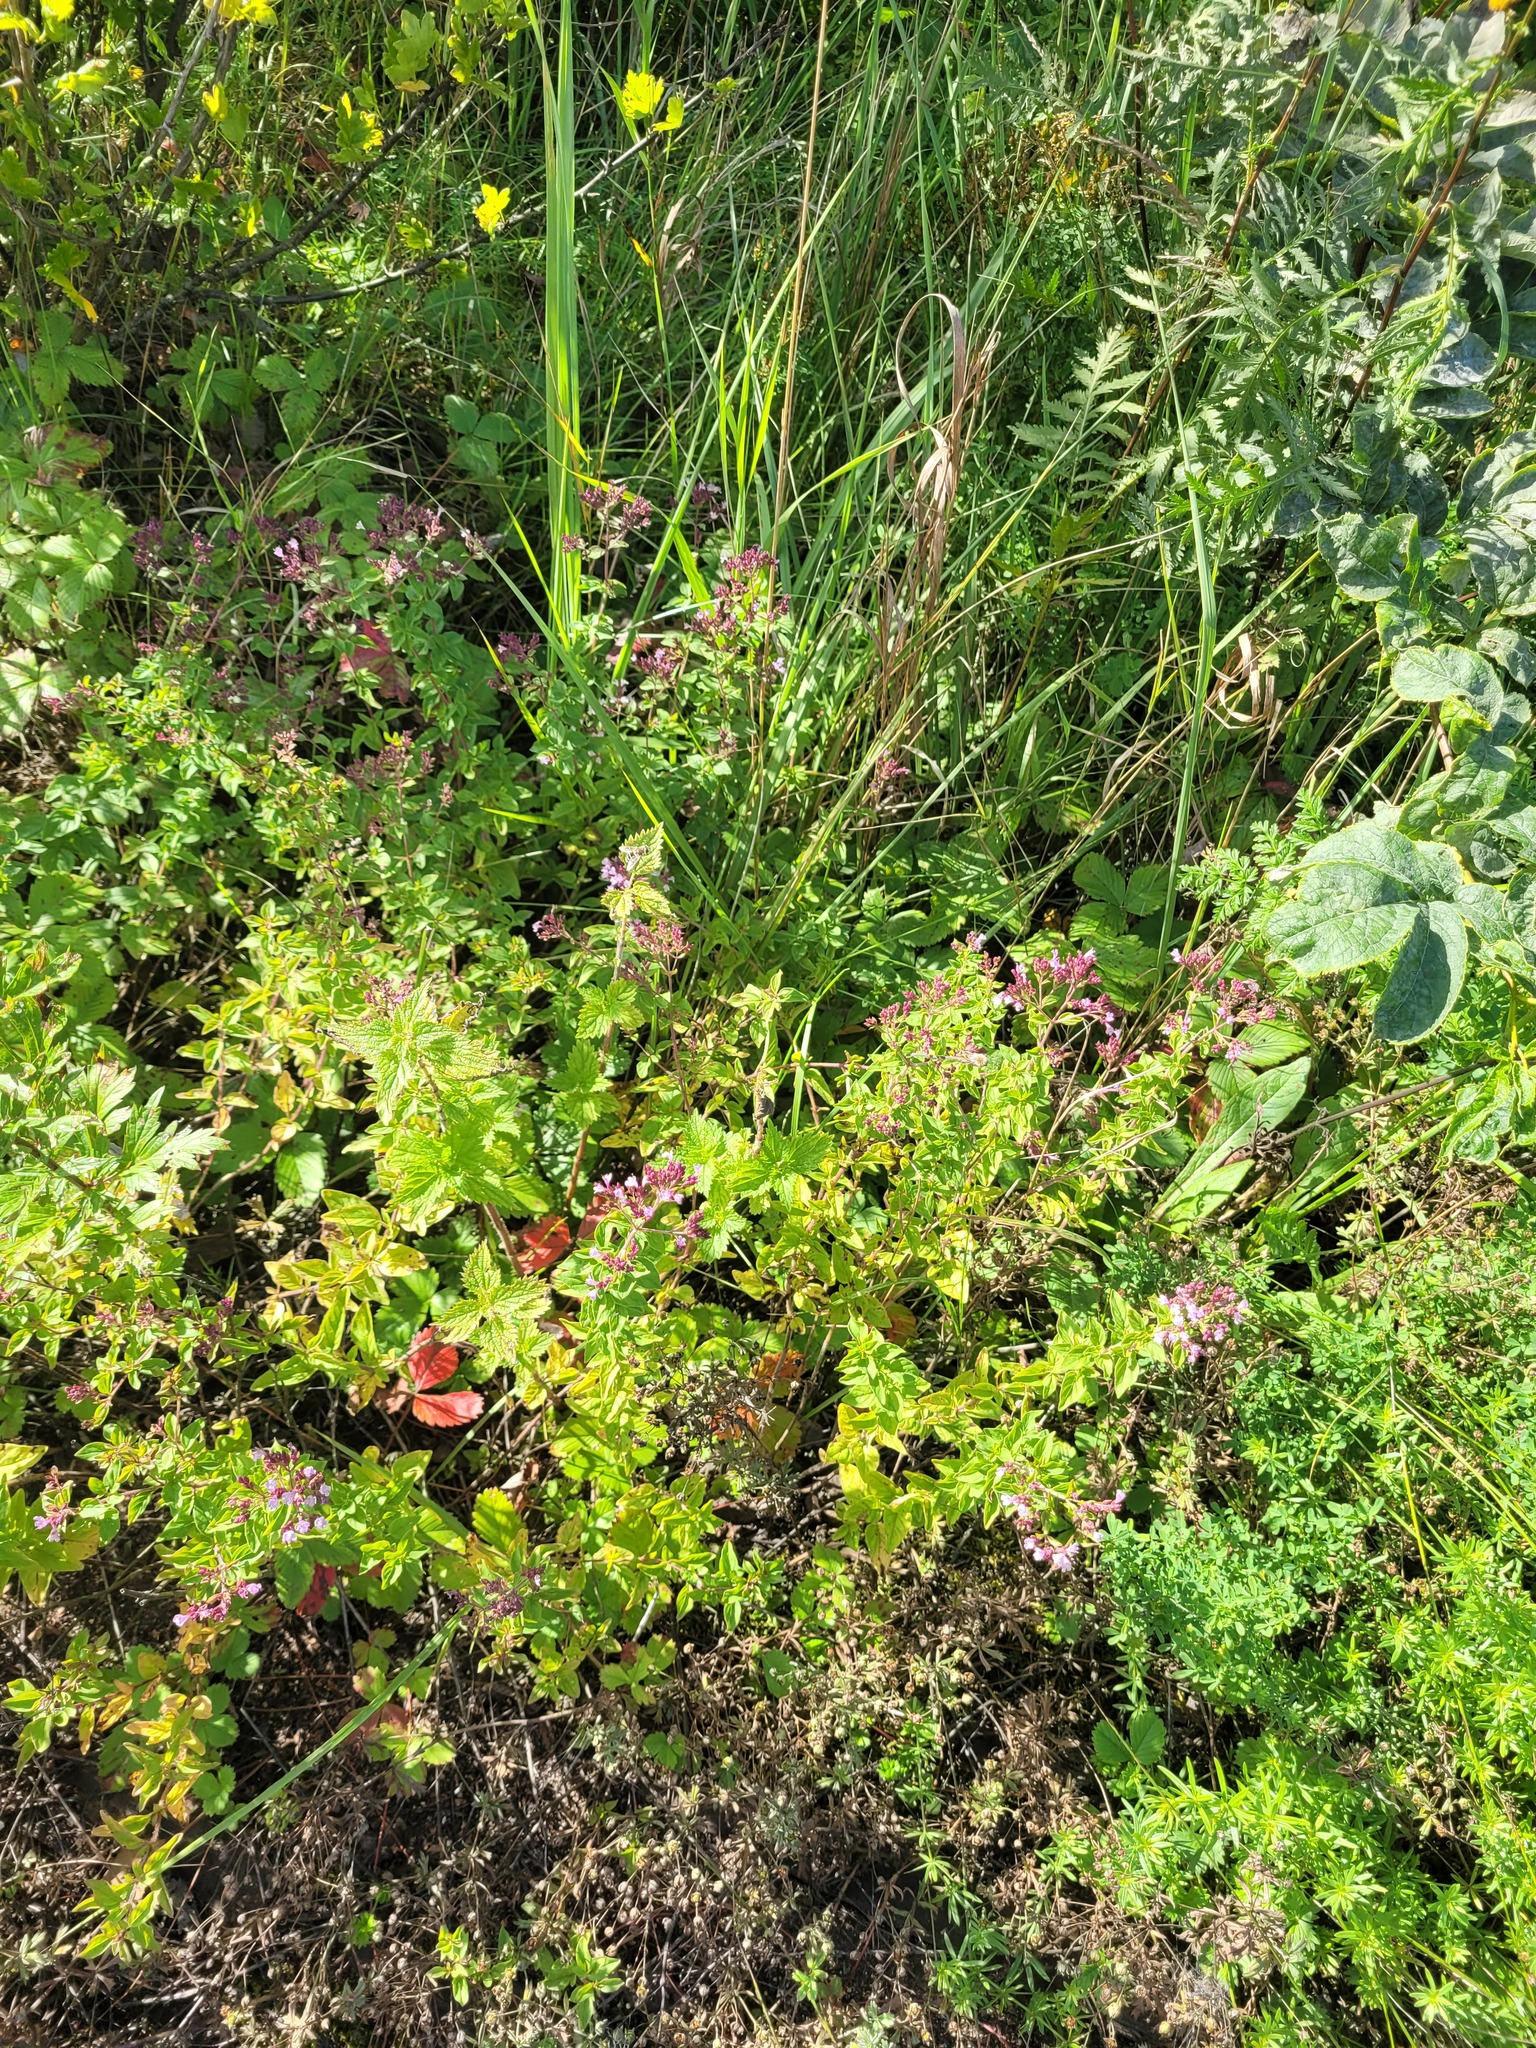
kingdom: Plantae
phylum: Tracheophyta
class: Magnoliopsida
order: Lamiales
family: Lamiaceae
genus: Origanum
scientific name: Origanum vulgare
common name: Wild marjoram
